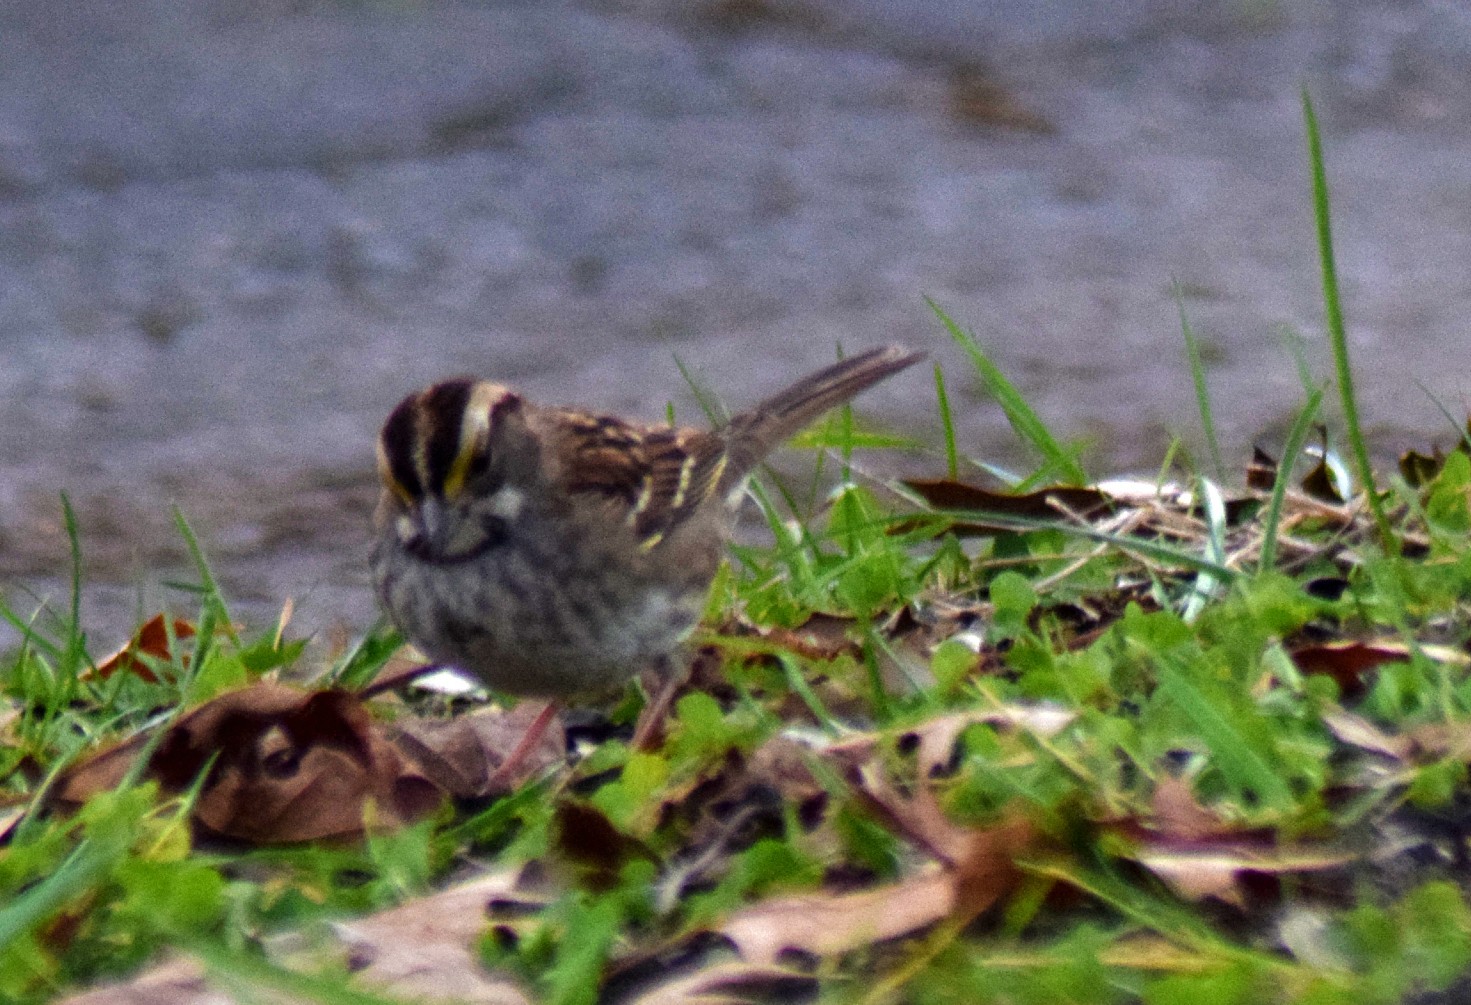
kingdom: Animalia
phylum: Chordata
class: Aves
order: Passeriformes
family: Passerellidae
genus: Zonotrichia
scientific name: Zonotrichia albicollis
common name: White-throated sparrow
